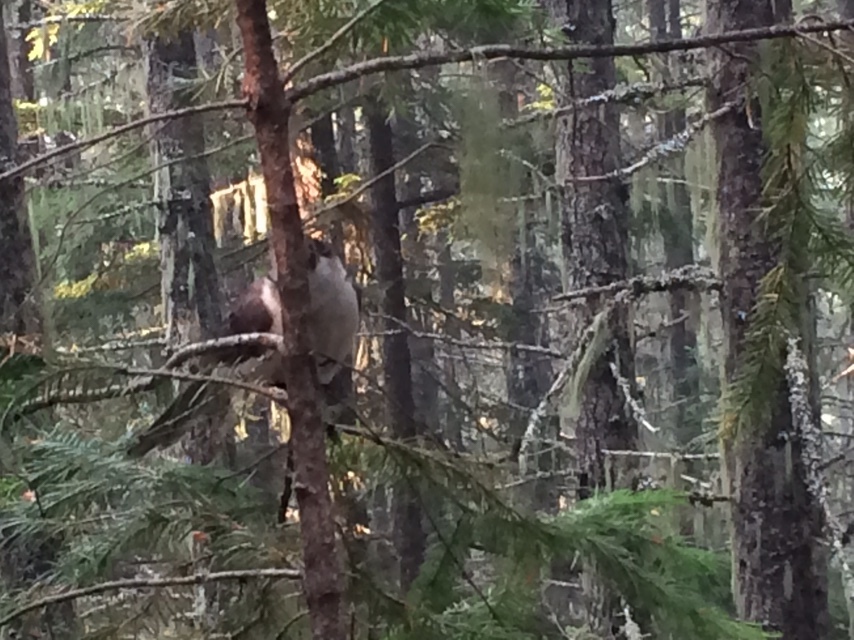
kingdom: Animalia
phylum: Chordata
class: Aves
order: Passeriformes
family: Corvidae
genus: Perisoreus
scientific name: Perisoreus canadensis
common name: Gray jay
